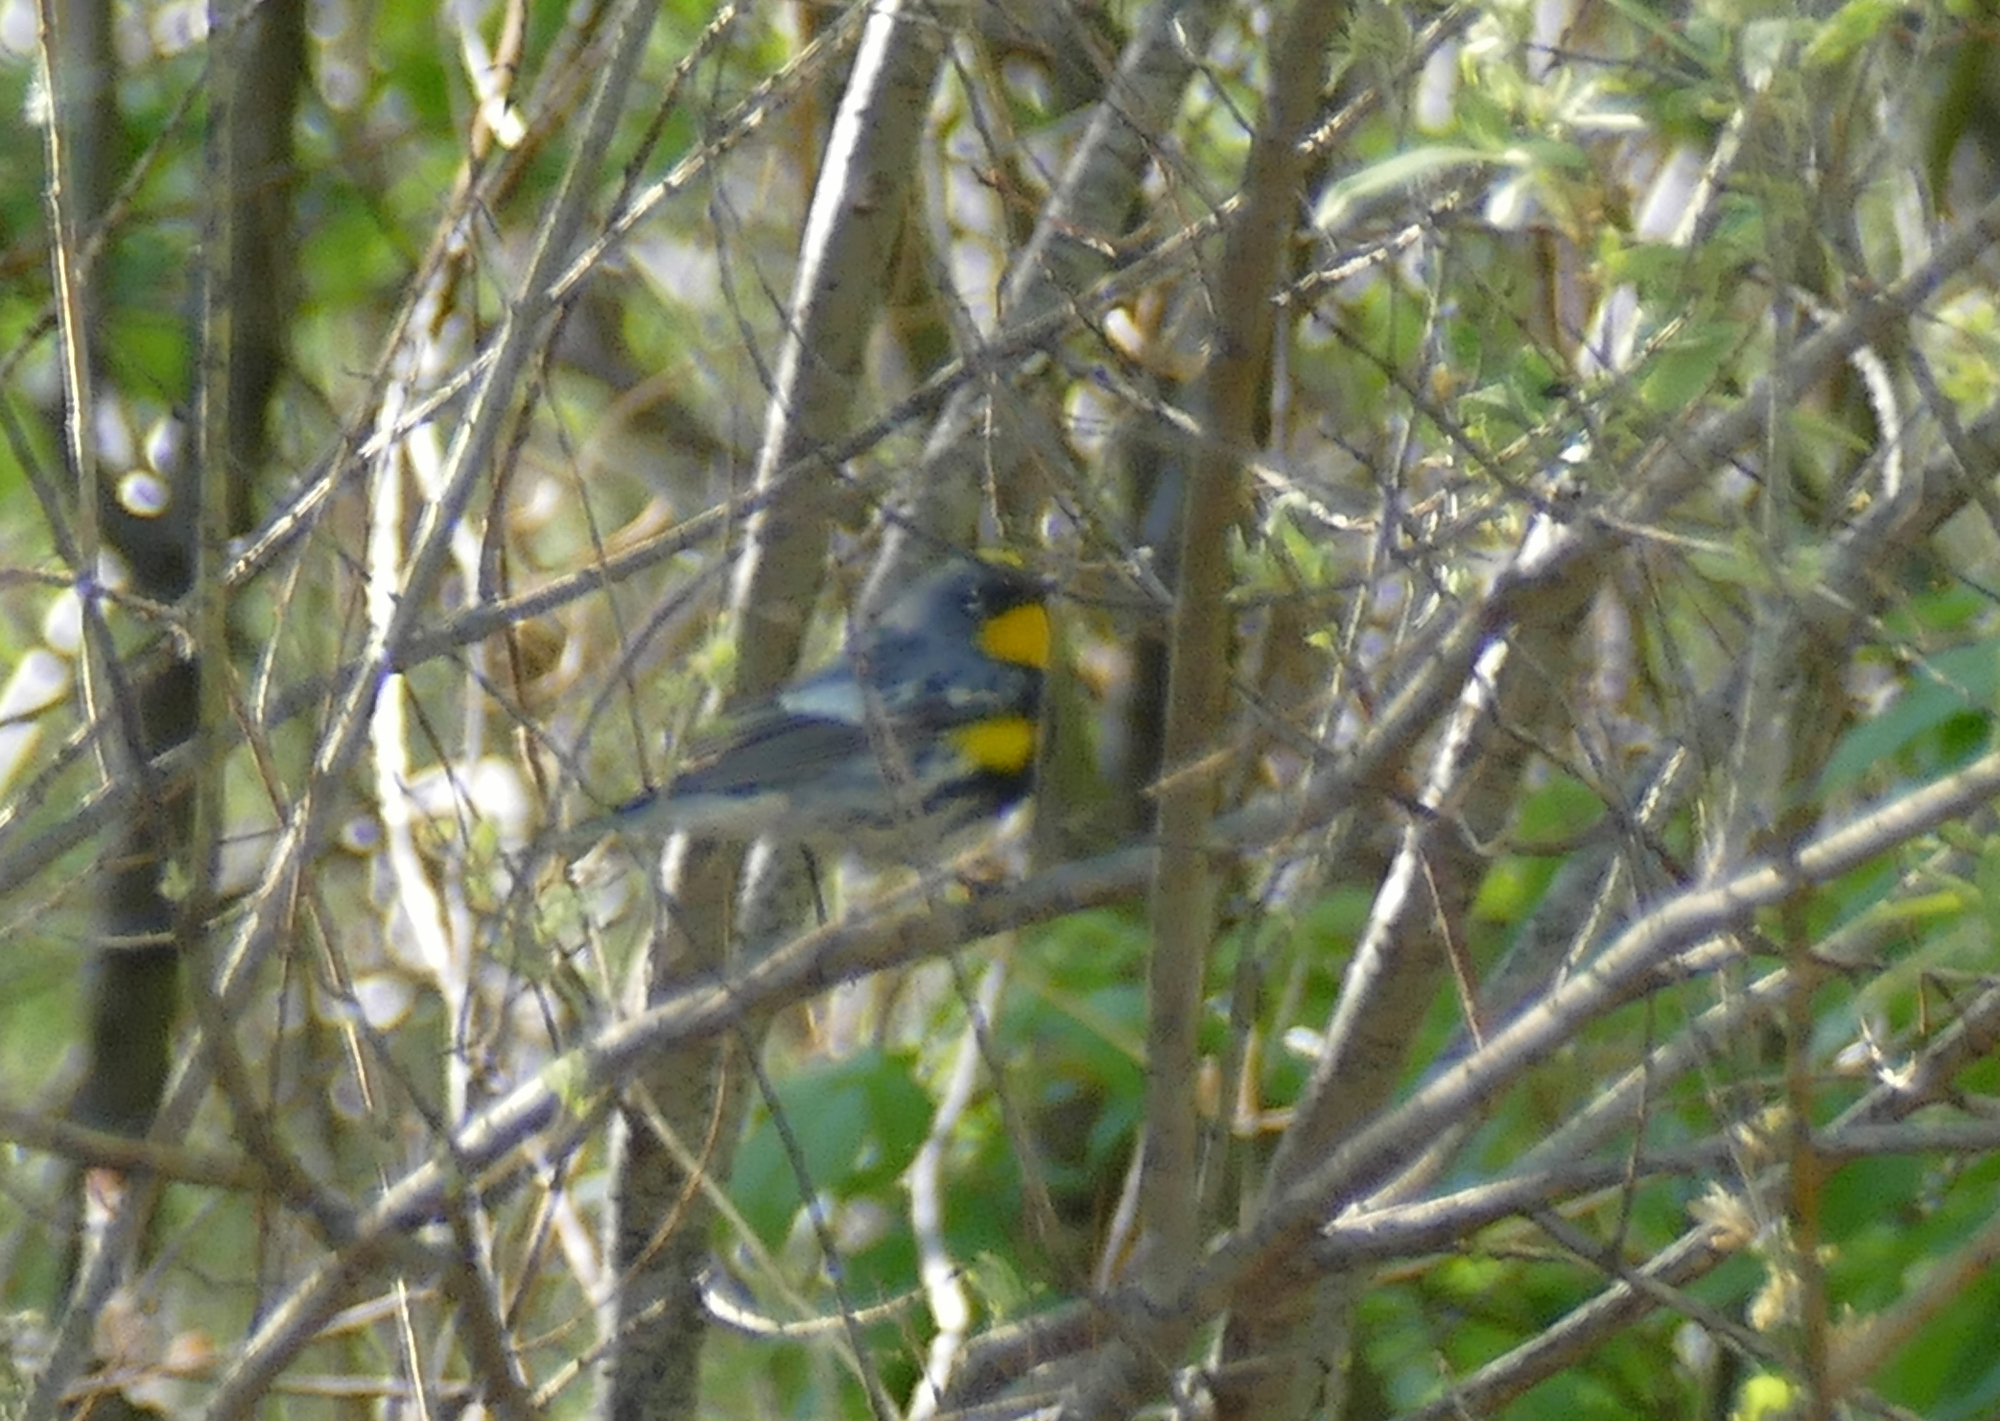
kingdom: Animalia
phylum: Chordata
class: Aves
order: Passeriformes
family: Parulidae
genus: Setophaga
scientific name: Setophaga coronata
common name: Myrtle warbler
